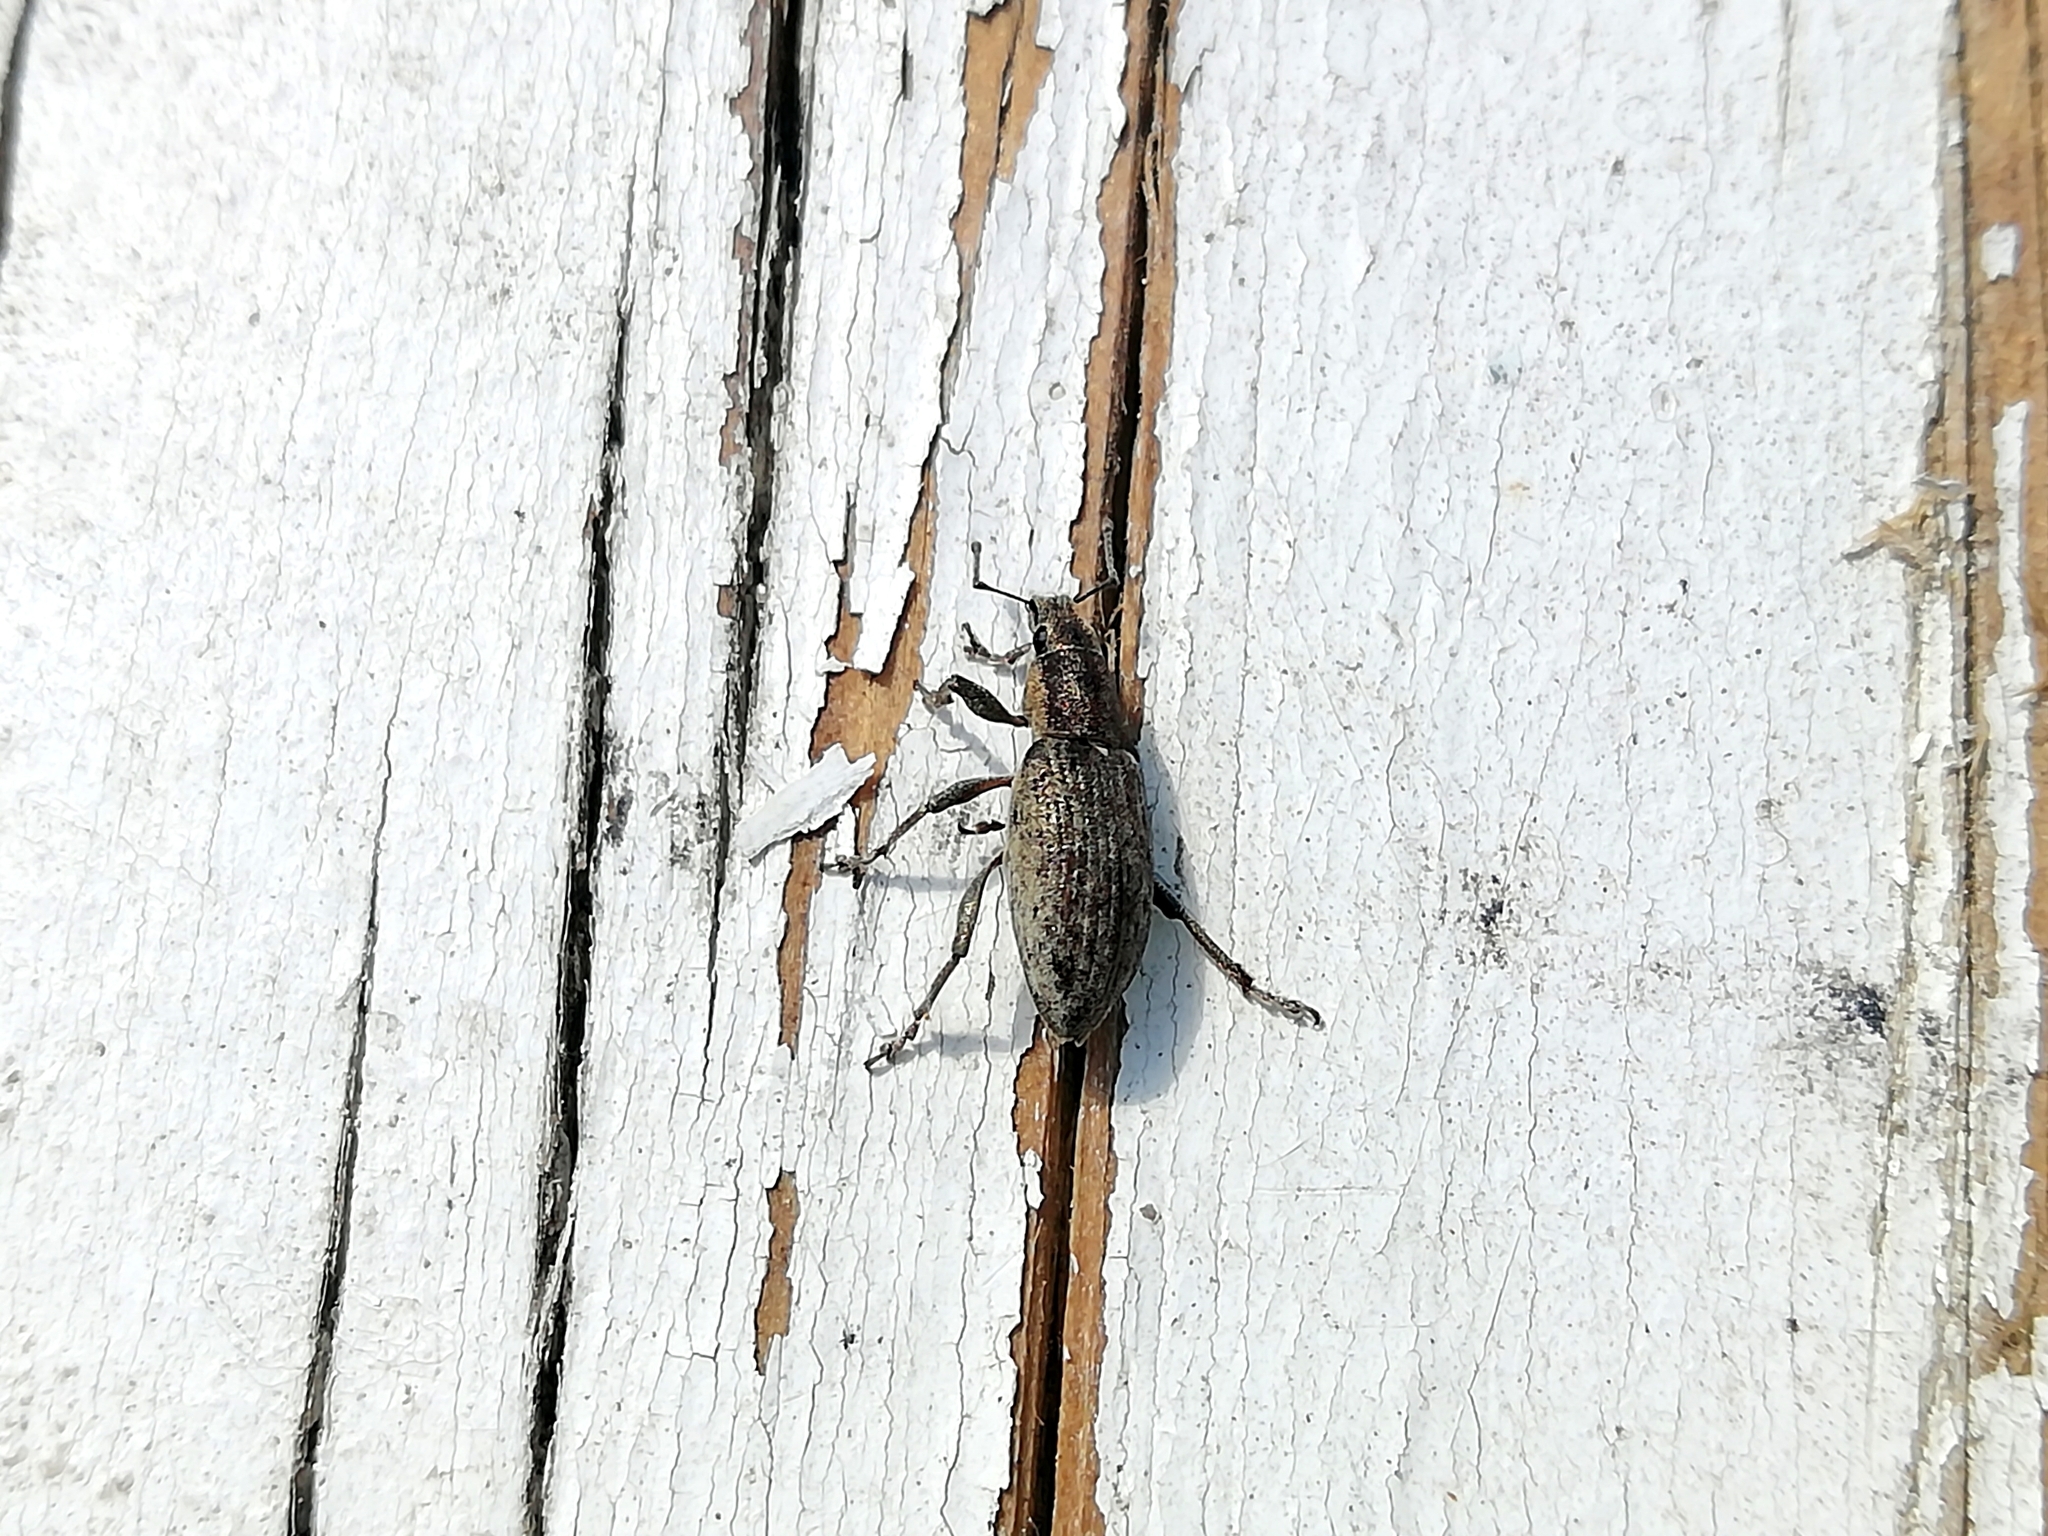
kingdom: Animalia
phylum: Arthropoda
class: Insecta
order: Coleoptera
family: Curculionidae
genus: Tanymecus
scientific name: Tanymecus palliatus
